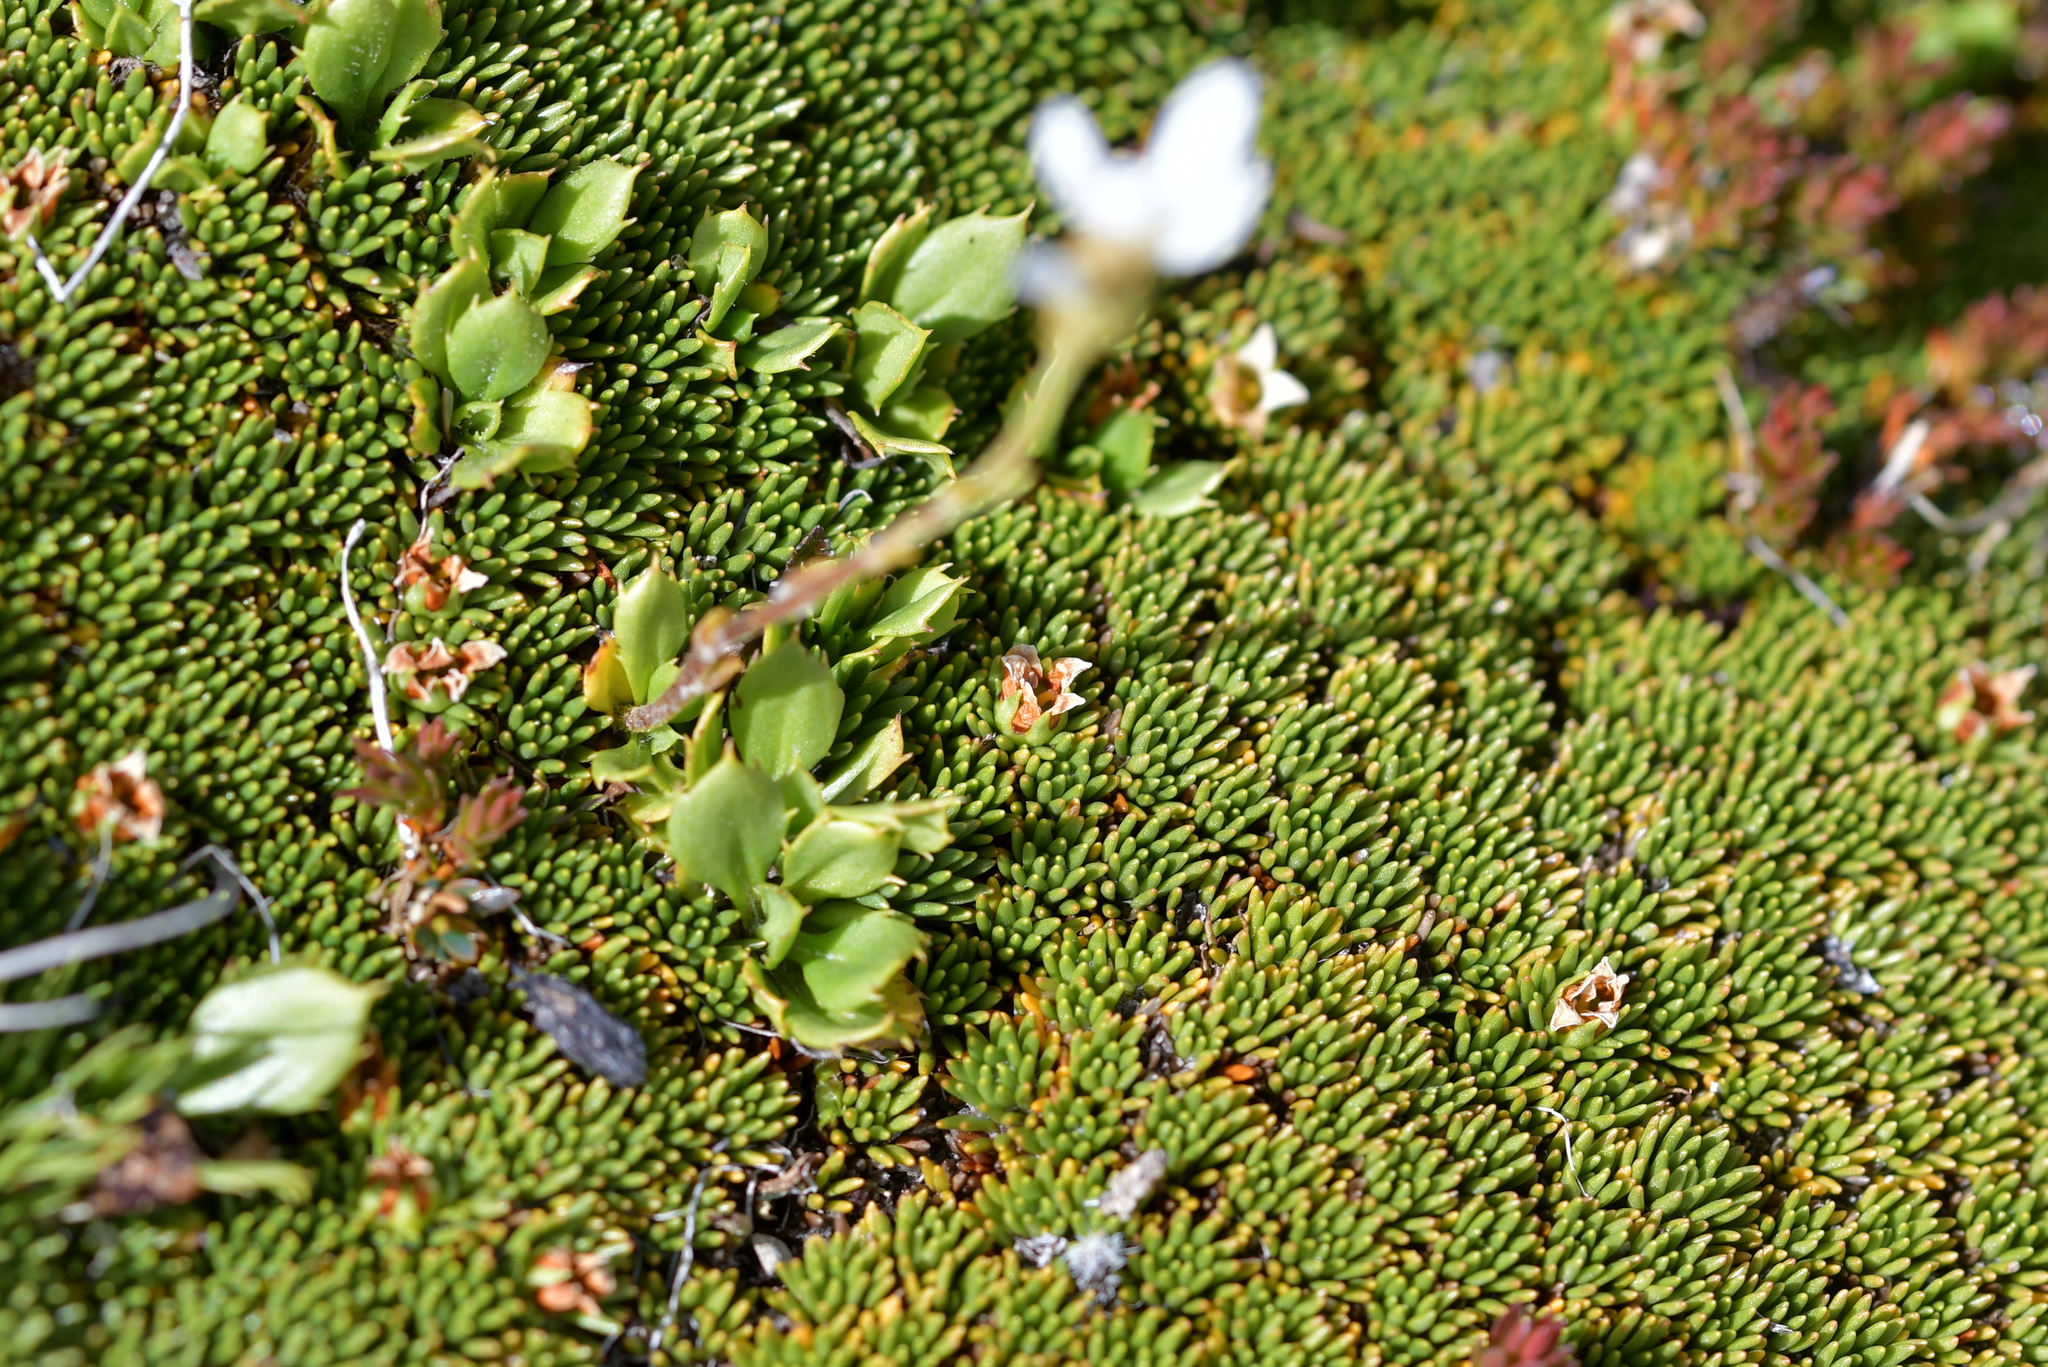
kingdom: Plantae
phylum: Tracheophyta
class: Magnoliopsida
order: Asterales
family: Asteraceae
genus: Celmisia
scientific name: Celmisia glandulosa
